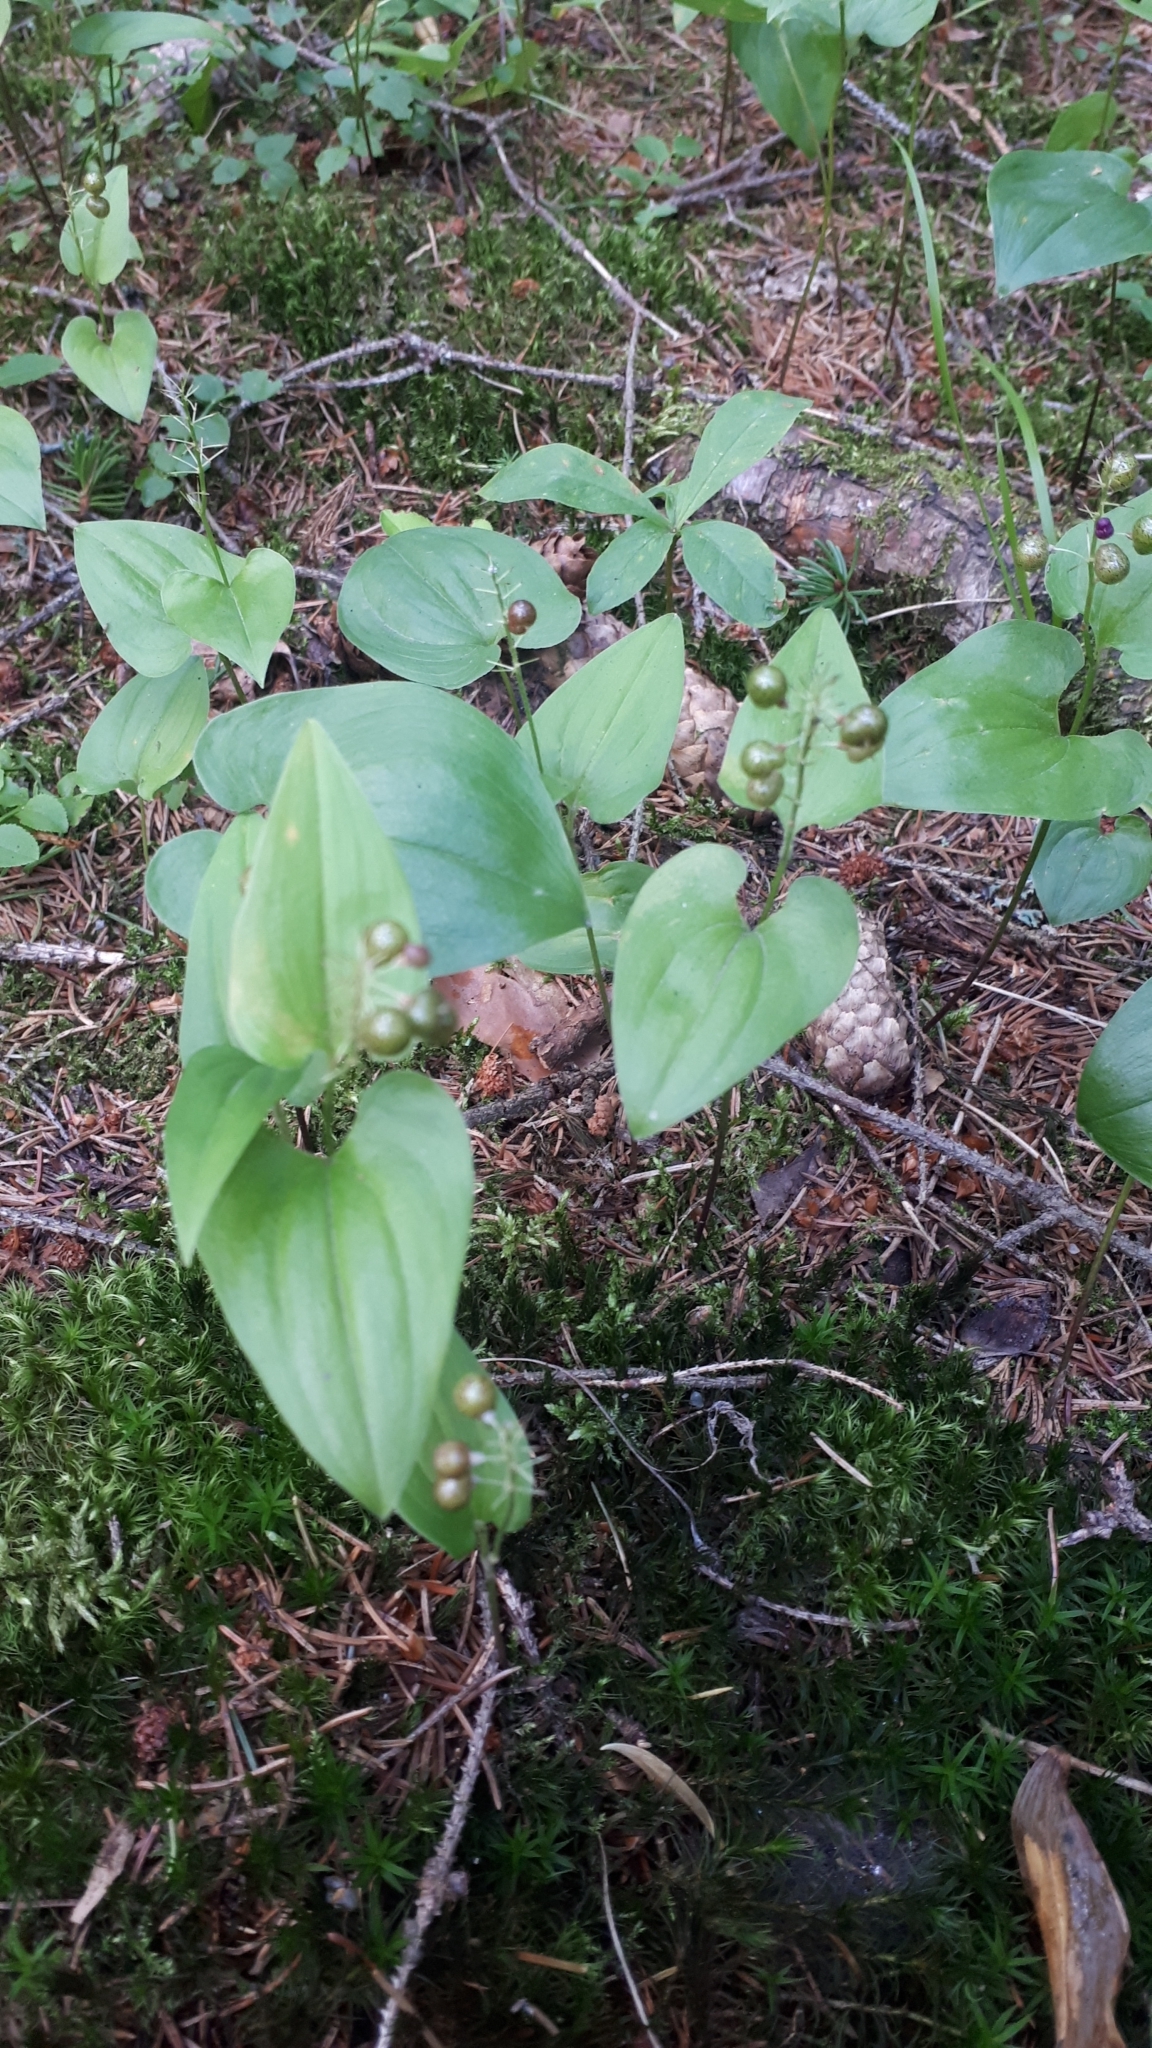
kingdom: Plantae
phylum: Tracheophyta
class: Liliopsida
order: Asparagales
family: Asparagaceae
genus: Maianthemum
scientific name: Maianthemum bifolium
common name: May lily
